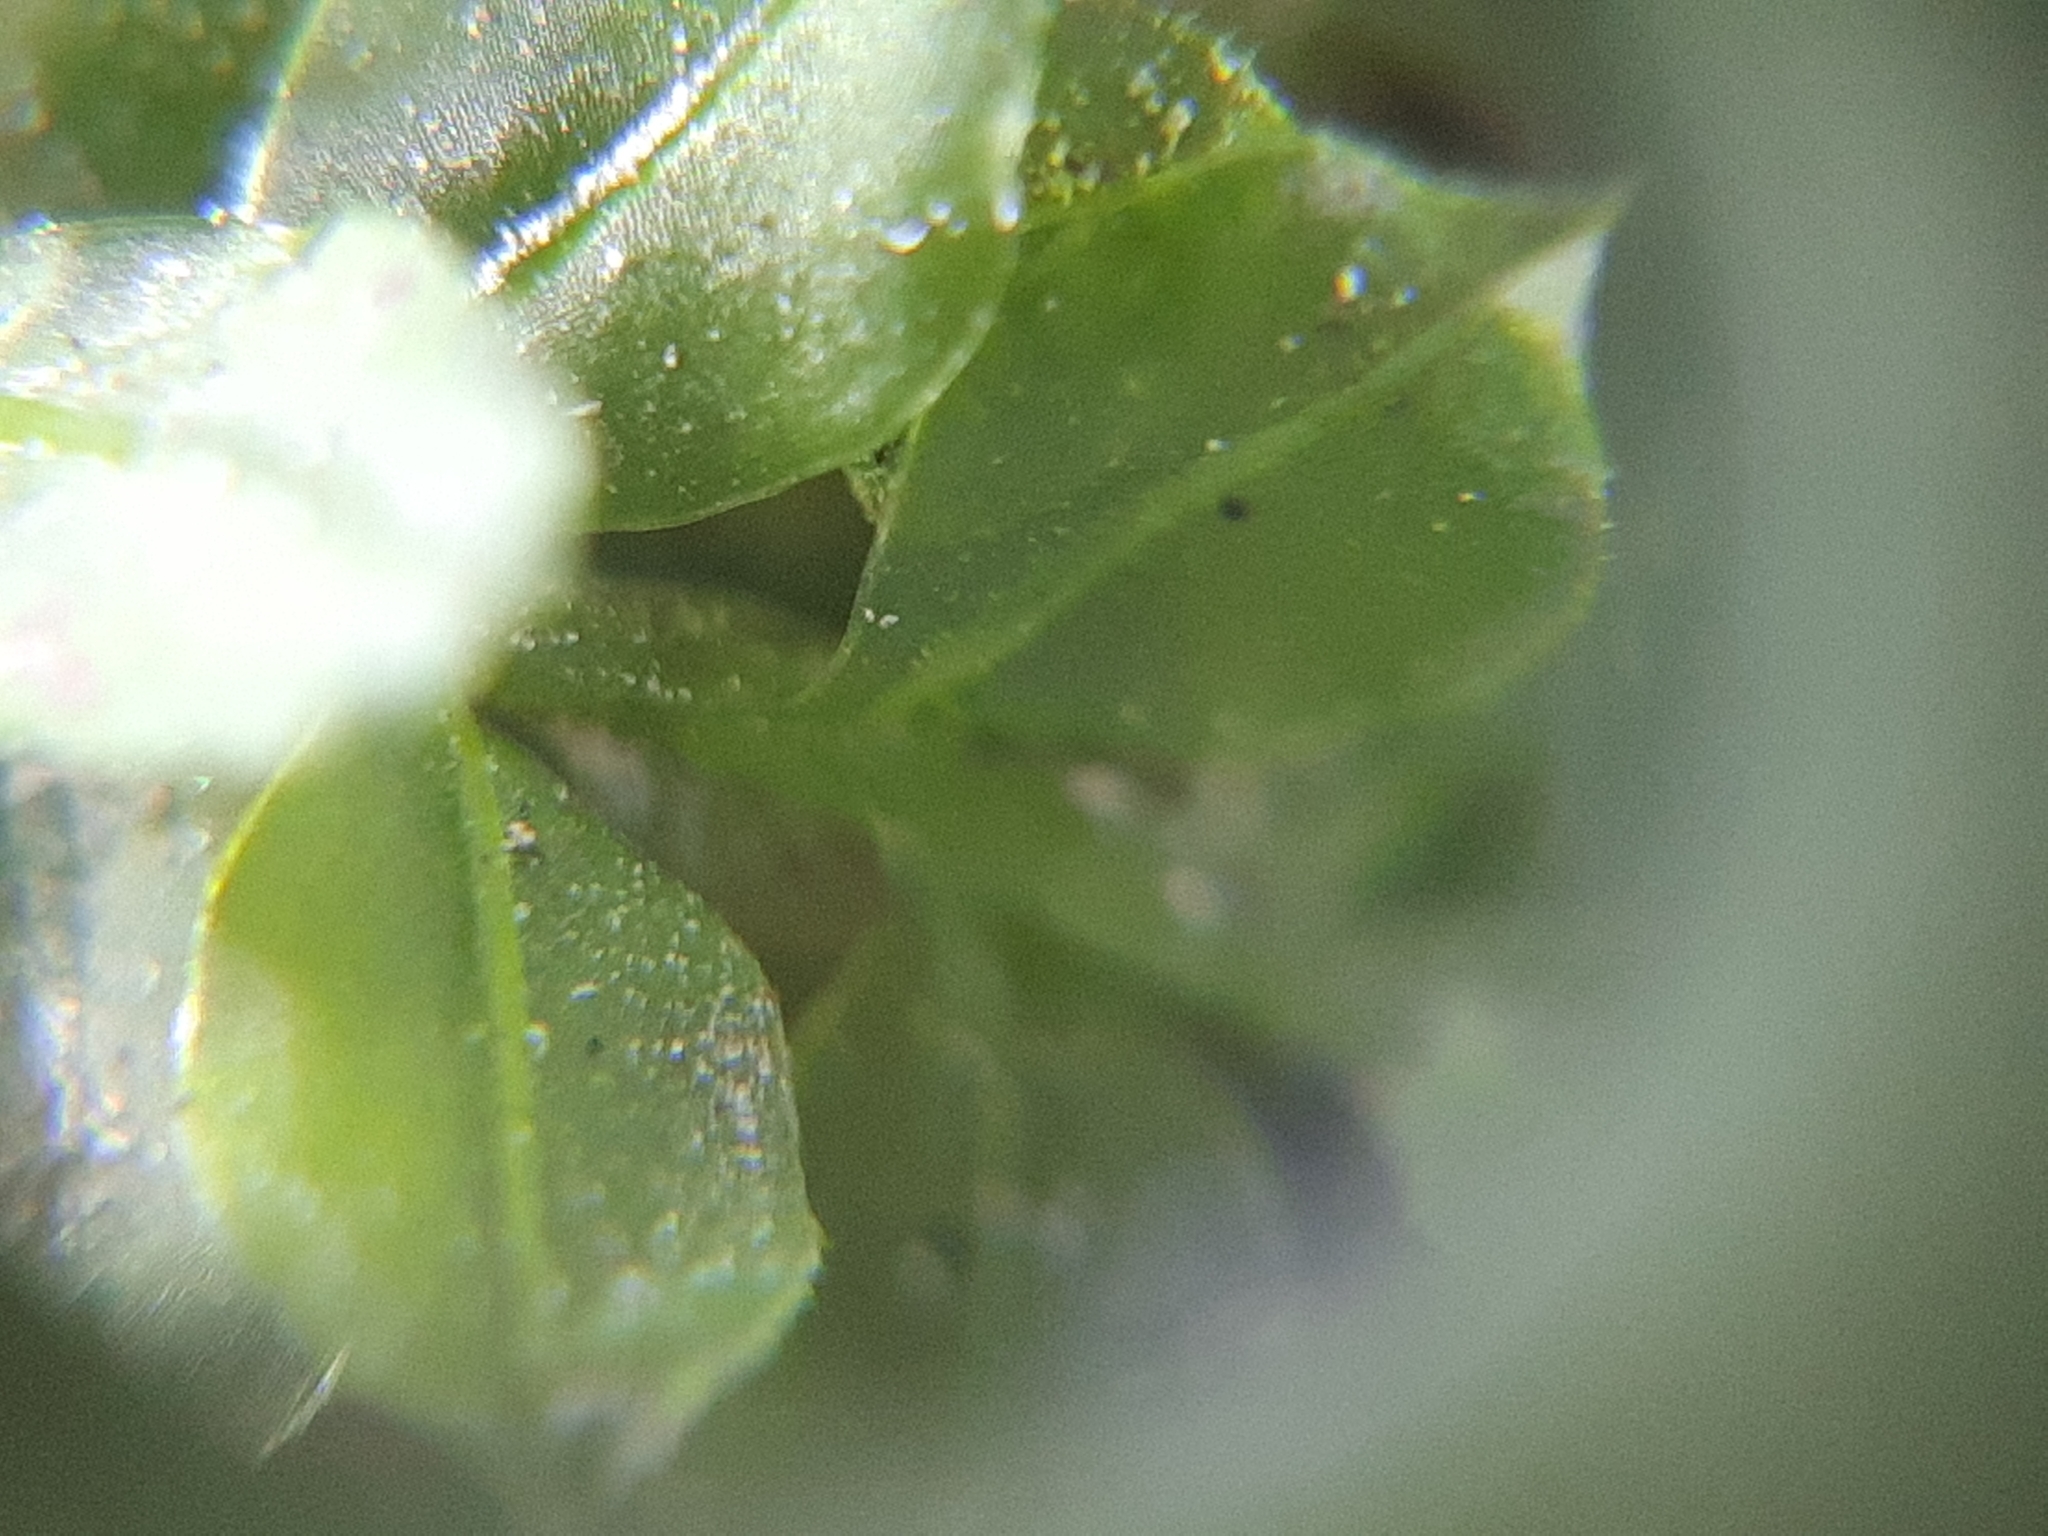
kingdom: Plantae
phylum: Bryophyta
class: Bryopsida
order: Bryales
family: Mniaceae
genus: Plagiomnium
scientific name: Plagiomnium cuspidatum
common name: Woodsy leafy moss
